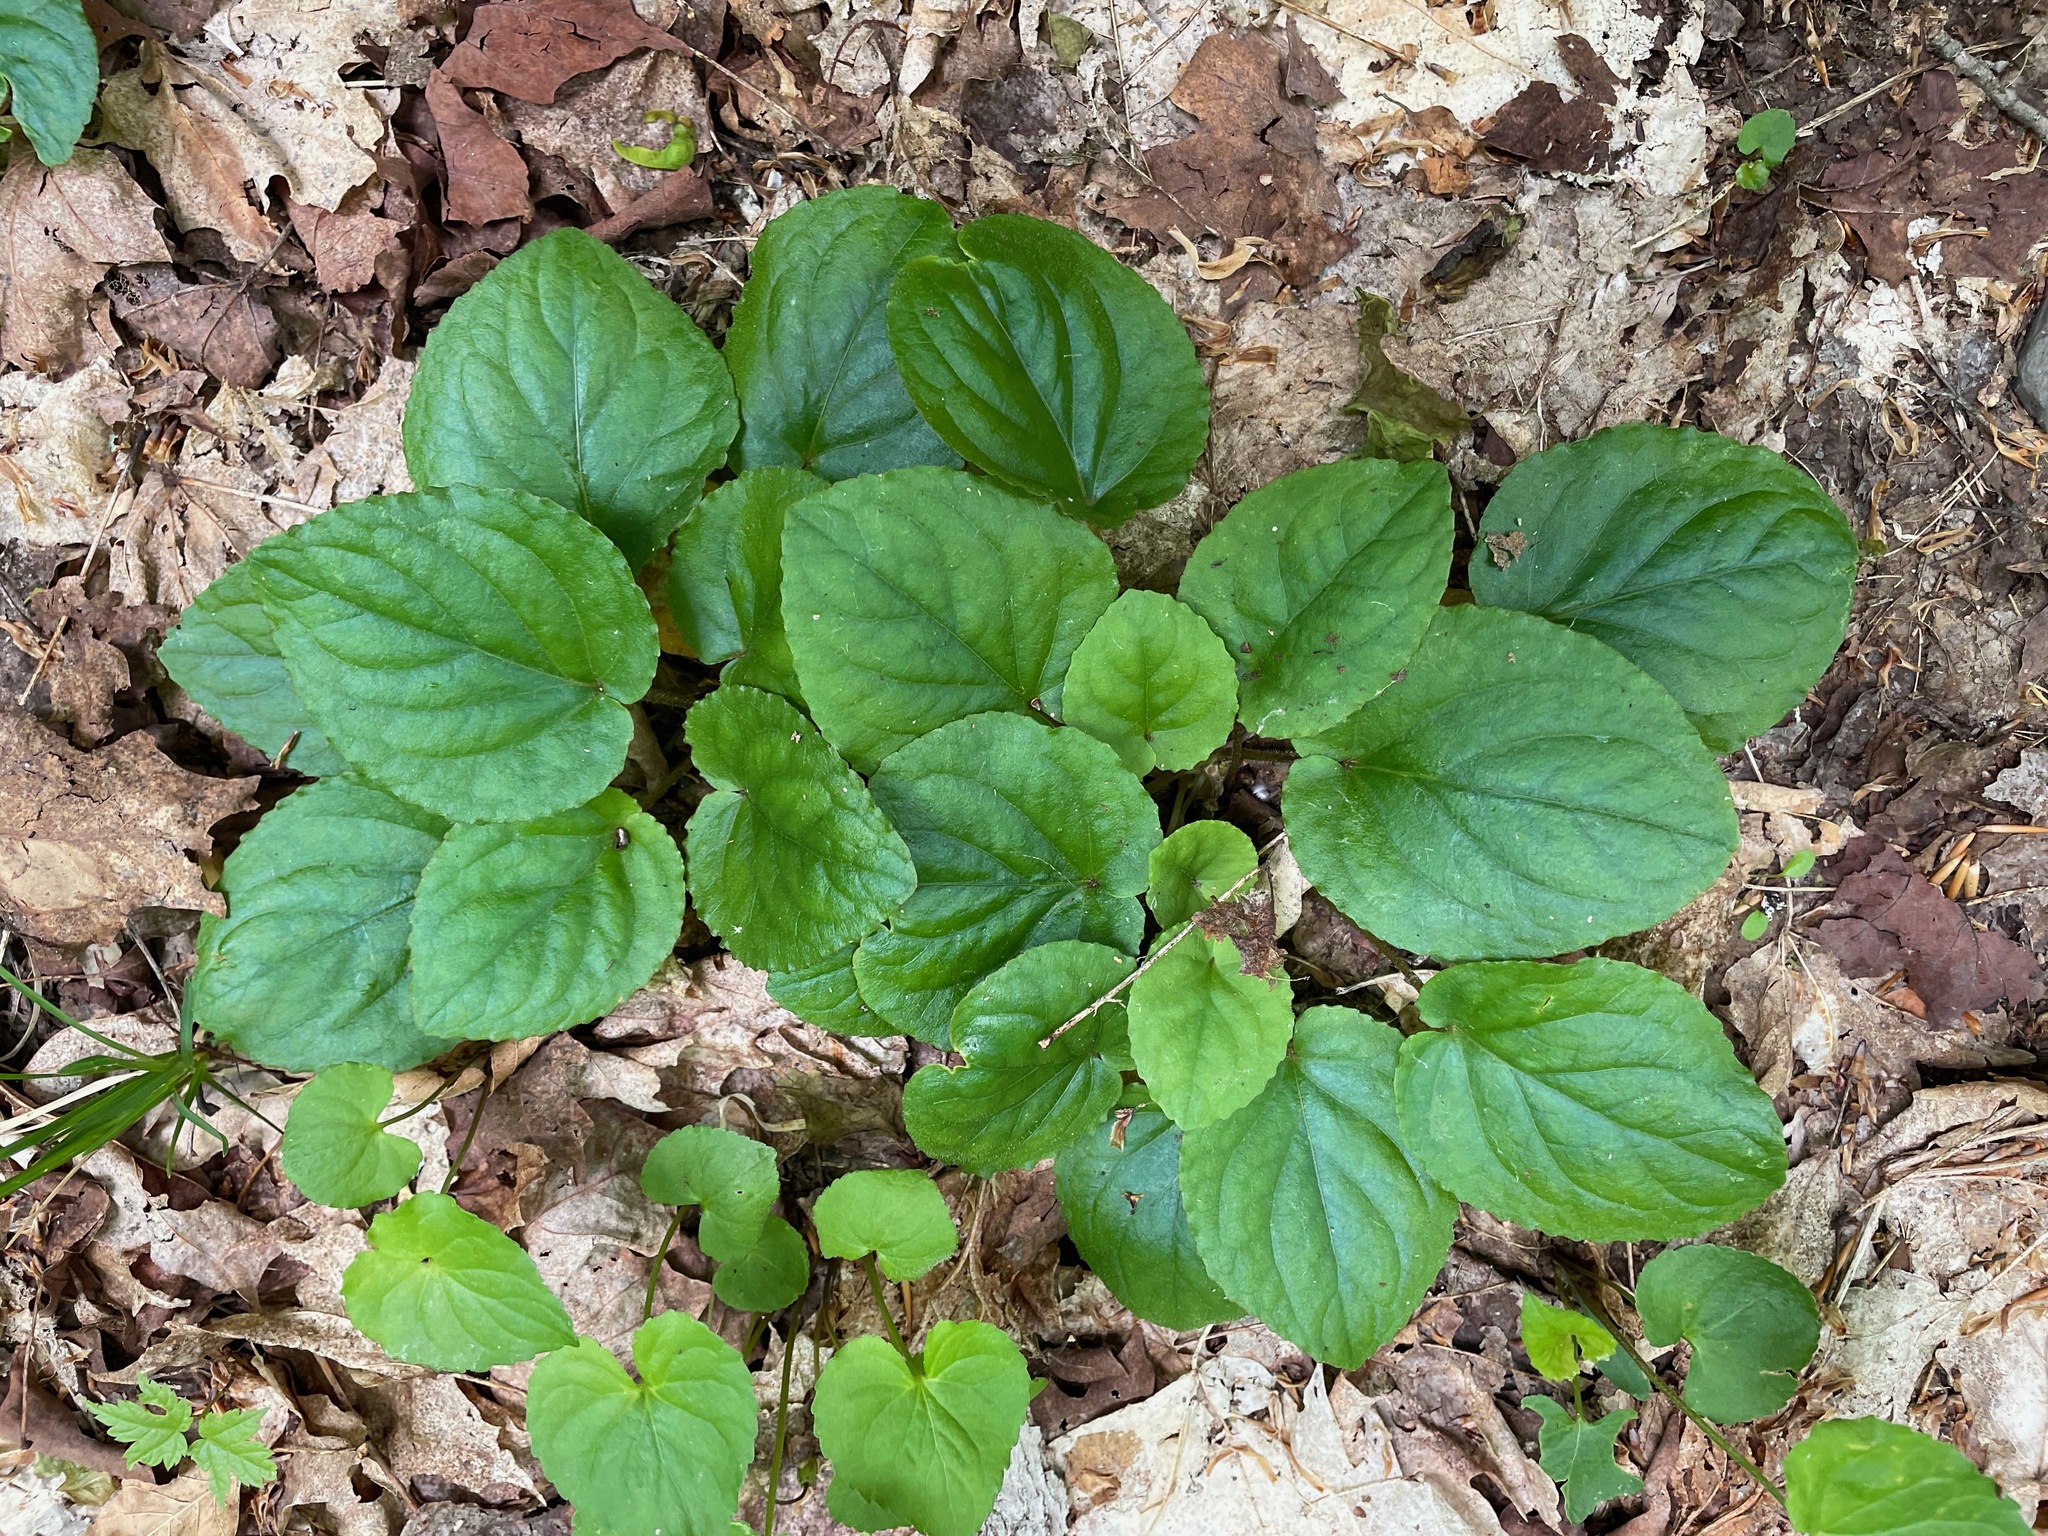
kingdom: Plantae
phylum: Tracheophyta
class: Magnoliopsida
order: Malpighiales
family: Violaceae
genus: Viola
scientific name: Viola rotundifolia
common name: Early yellow violet
